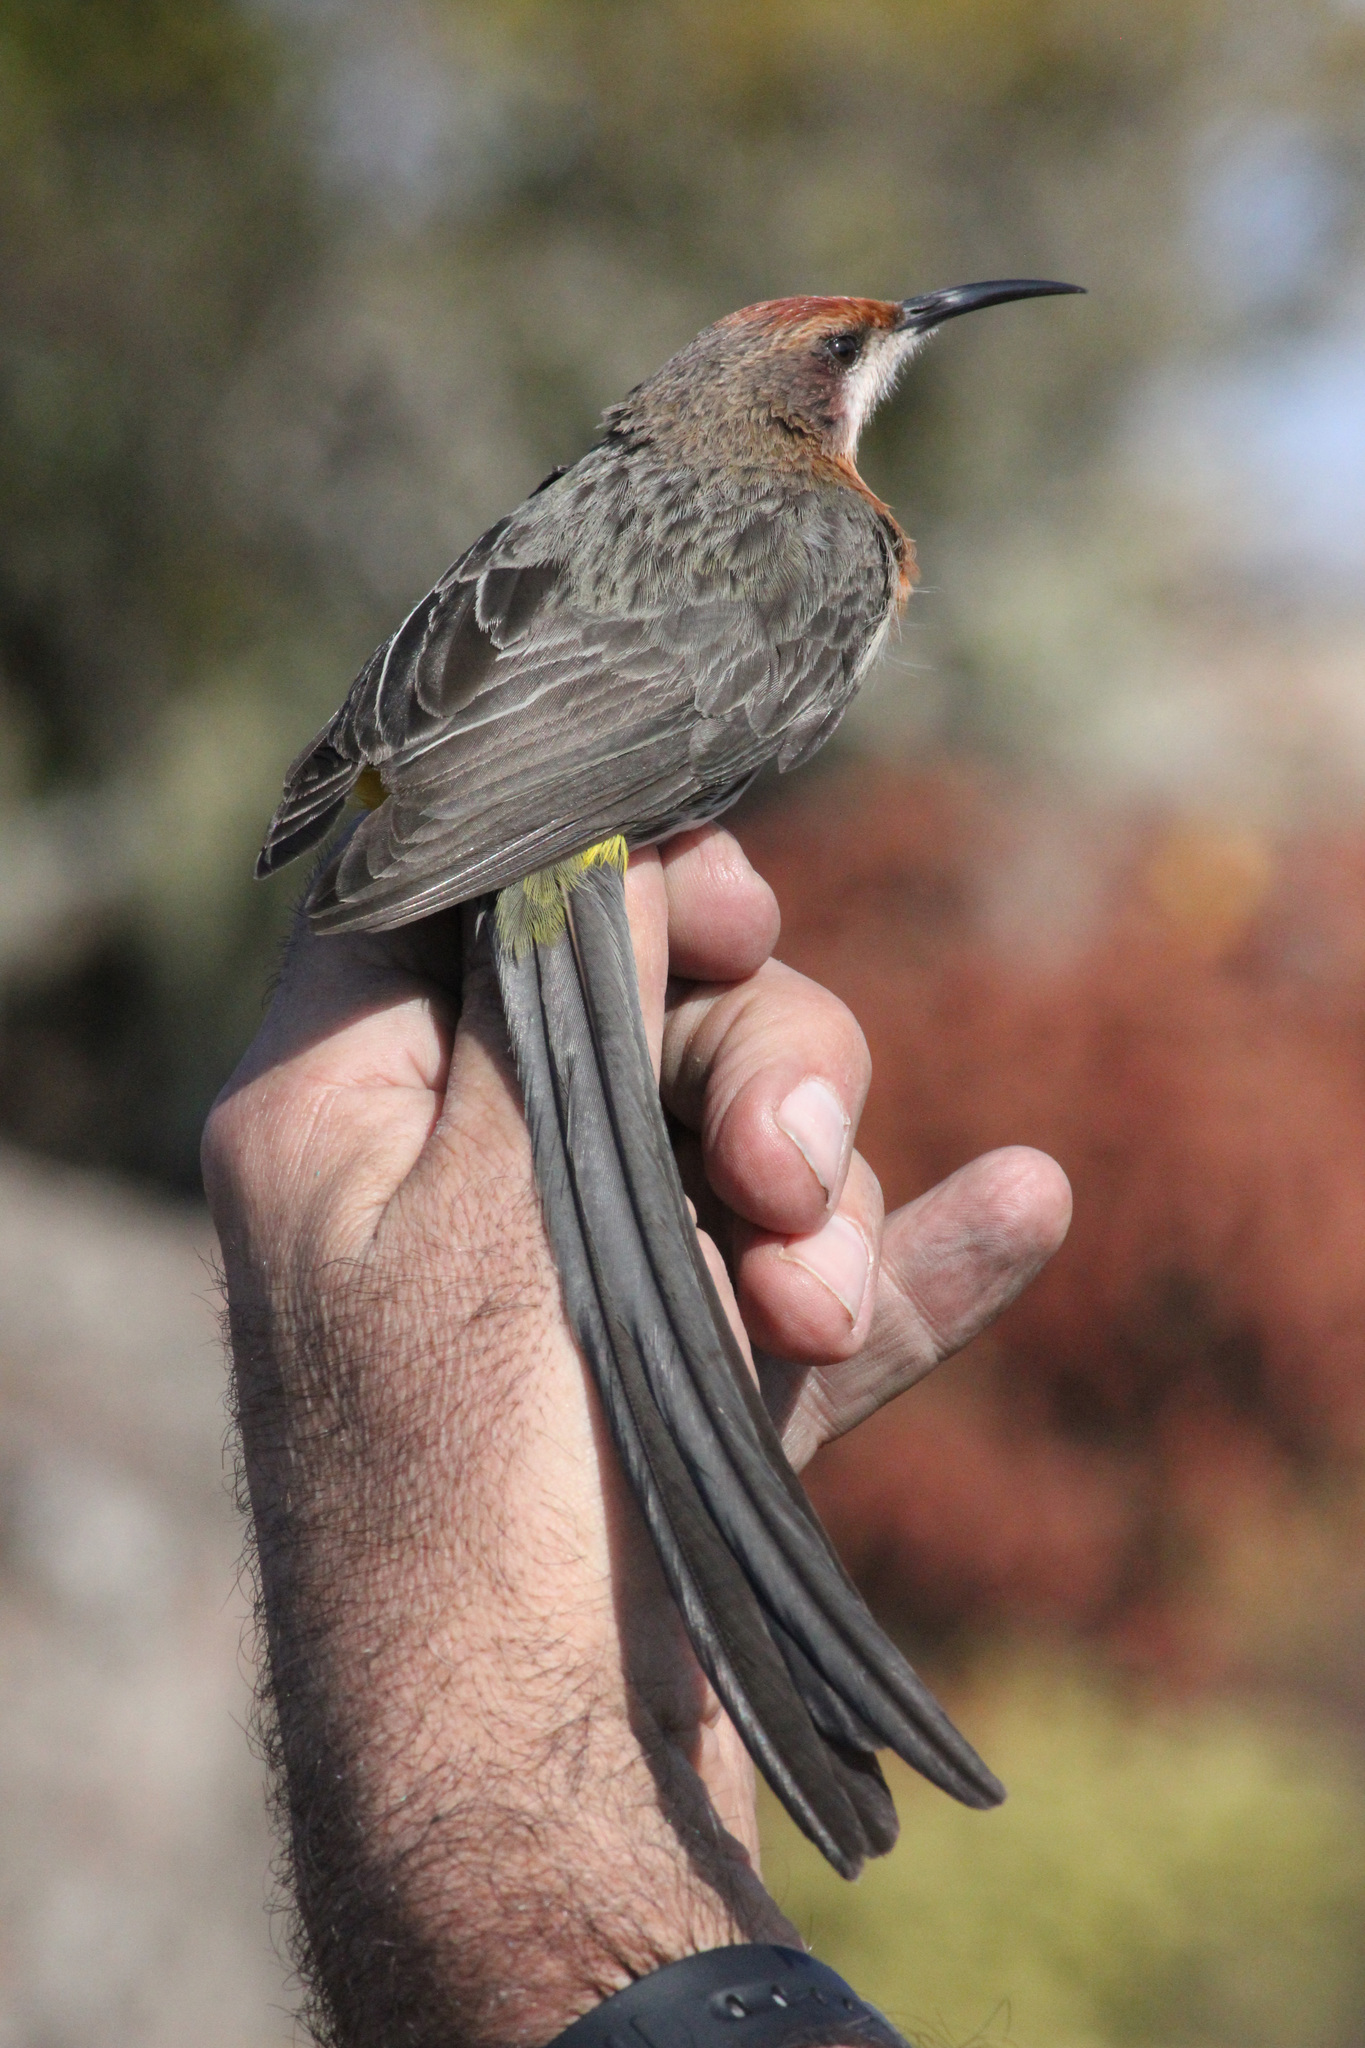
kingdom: Animalia
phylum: Chordata
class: Aves
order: Passeriformes
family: Promeropidae
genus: Promerops
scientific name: Promerops gurneyi
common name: Gurney's sugarbird
